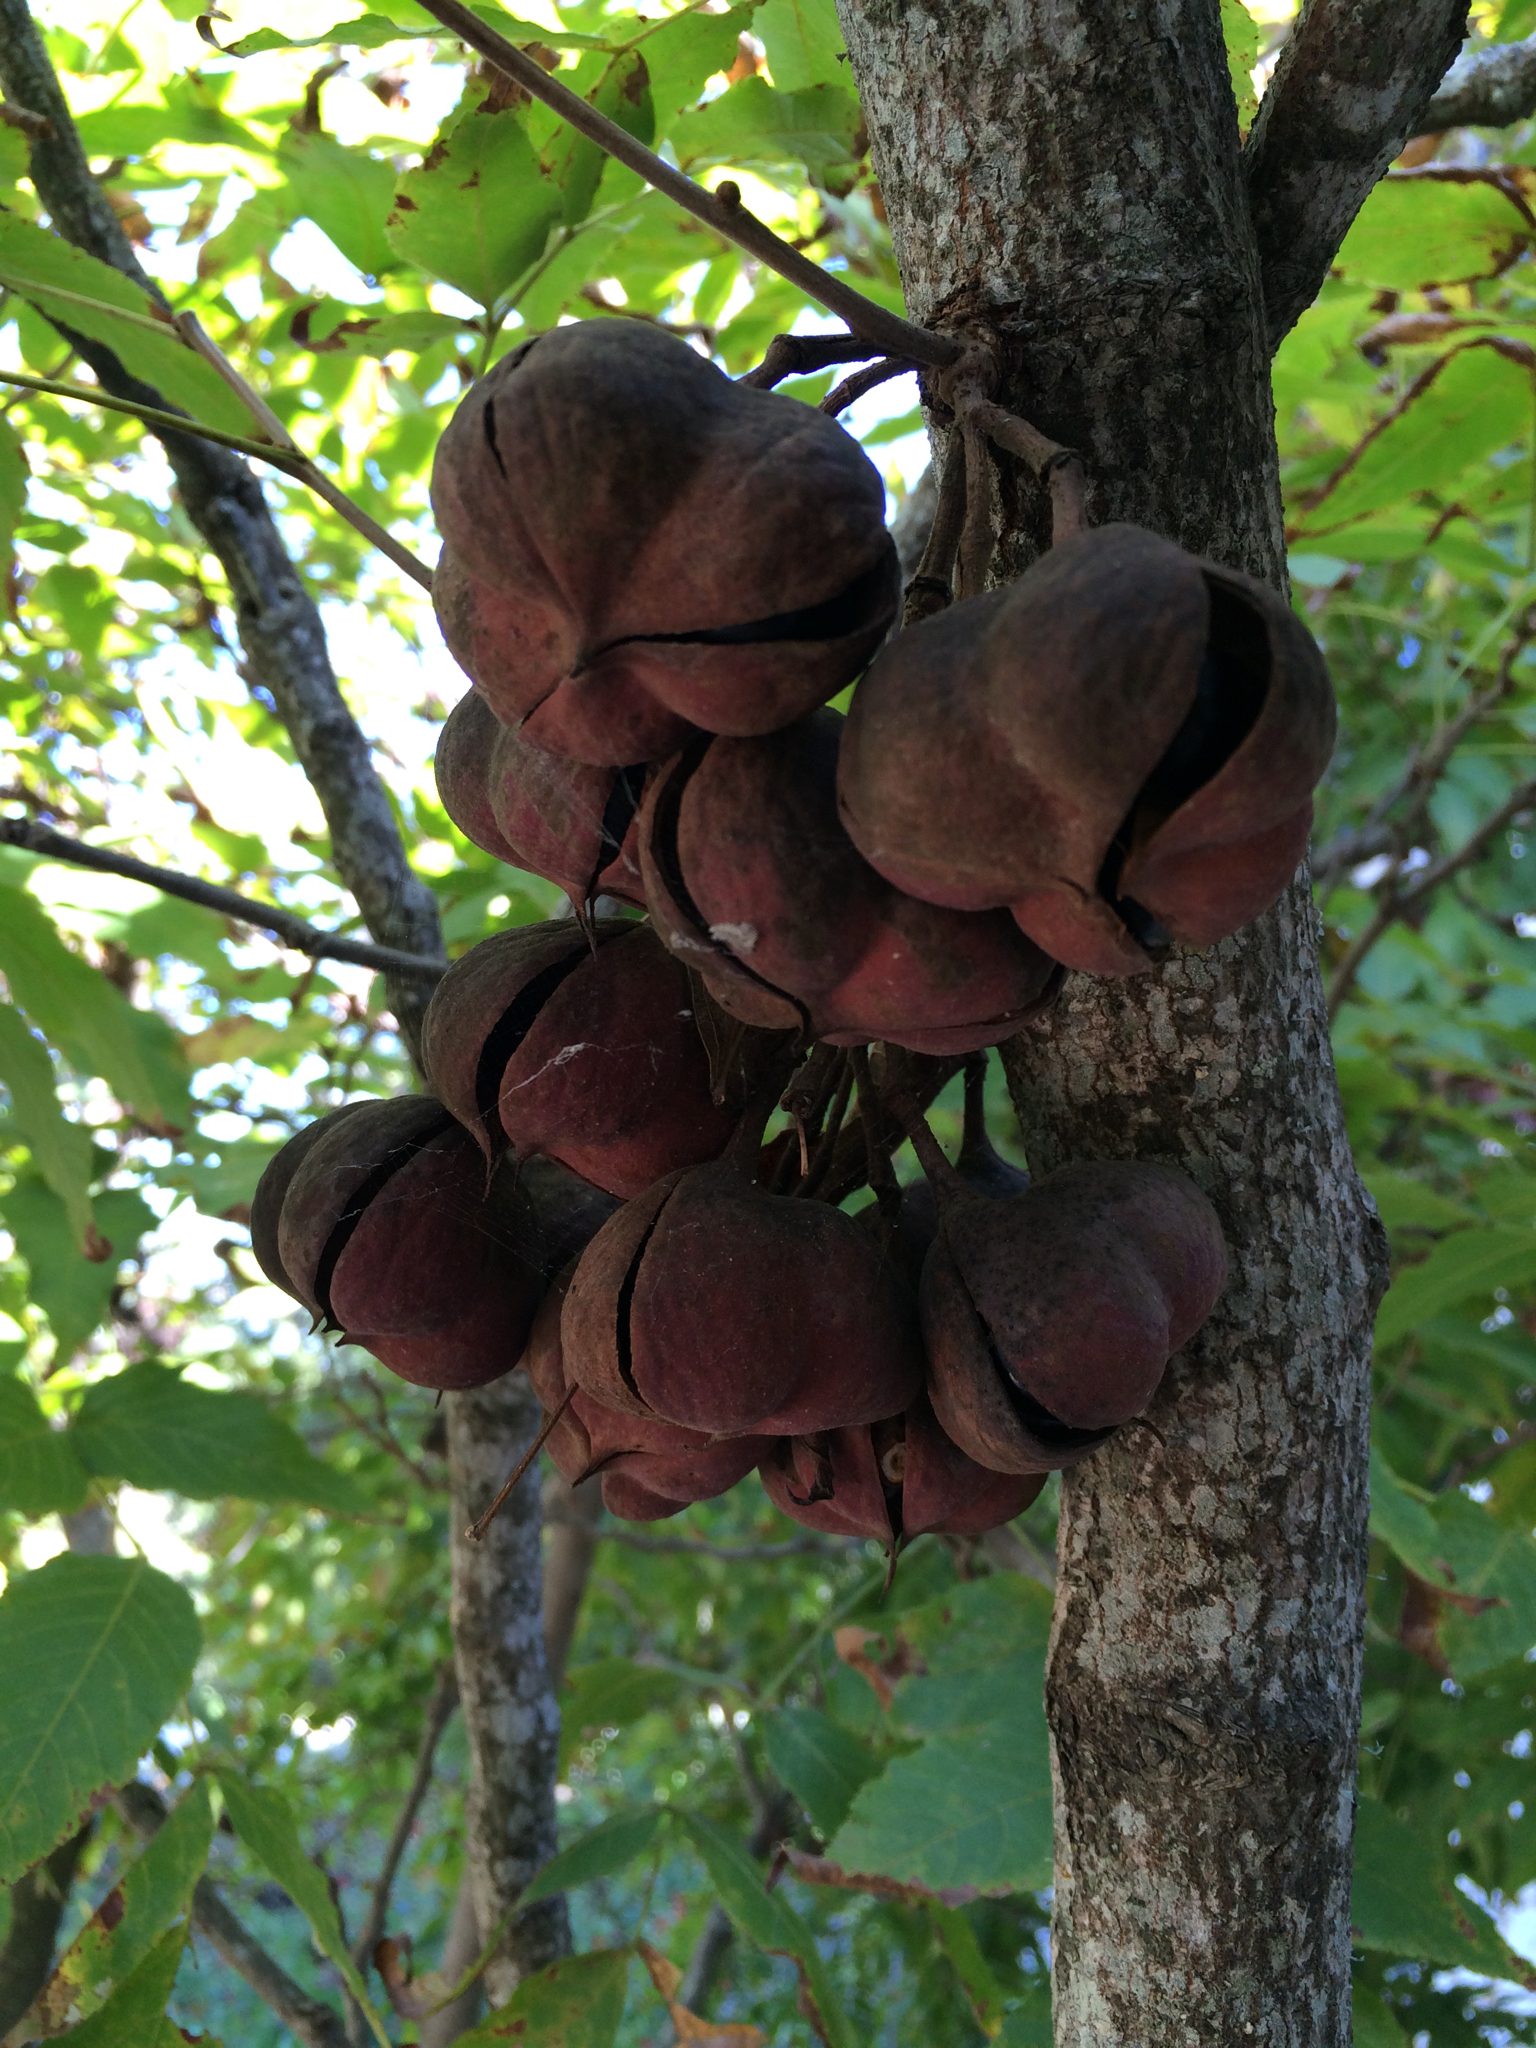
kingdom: Plantae
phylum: Tracheophyta
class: Magnoliopsida
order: Sapindales
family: Sapindaceae
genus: Ungnadia
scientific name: Ungnadia speciosa
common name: Texas-buckeye
